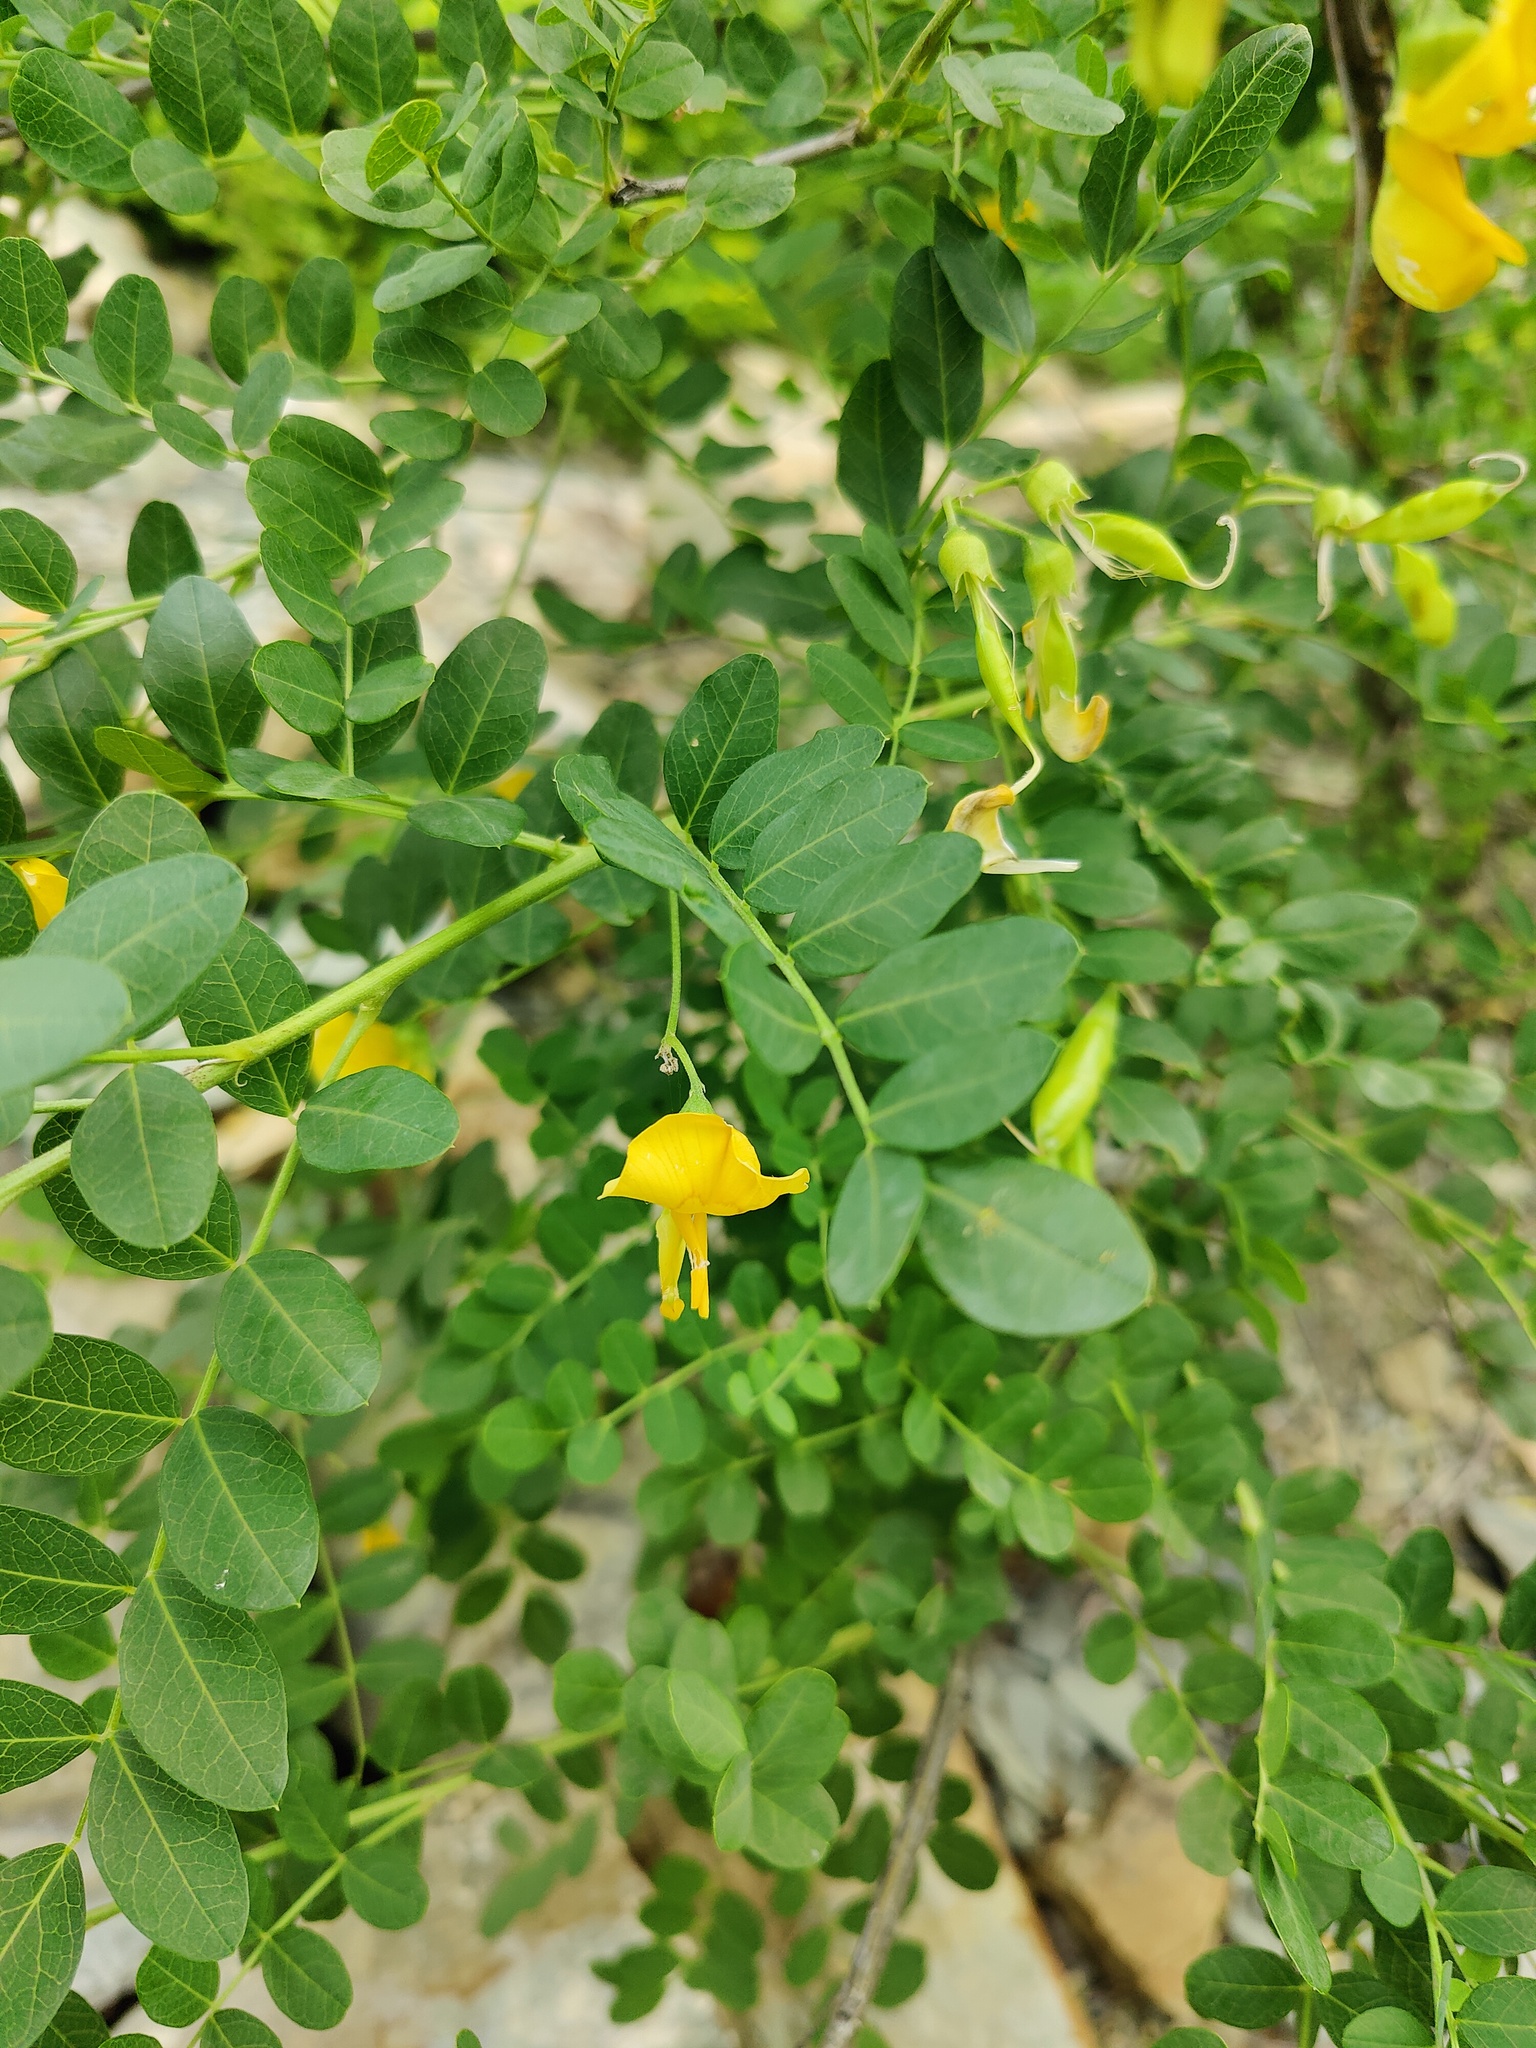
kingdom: Plantae
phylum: Tracheophyta
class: Magnoliopsida
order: Fabales
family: Fabaceae
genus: Colutea
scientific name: Colutea cilicica
